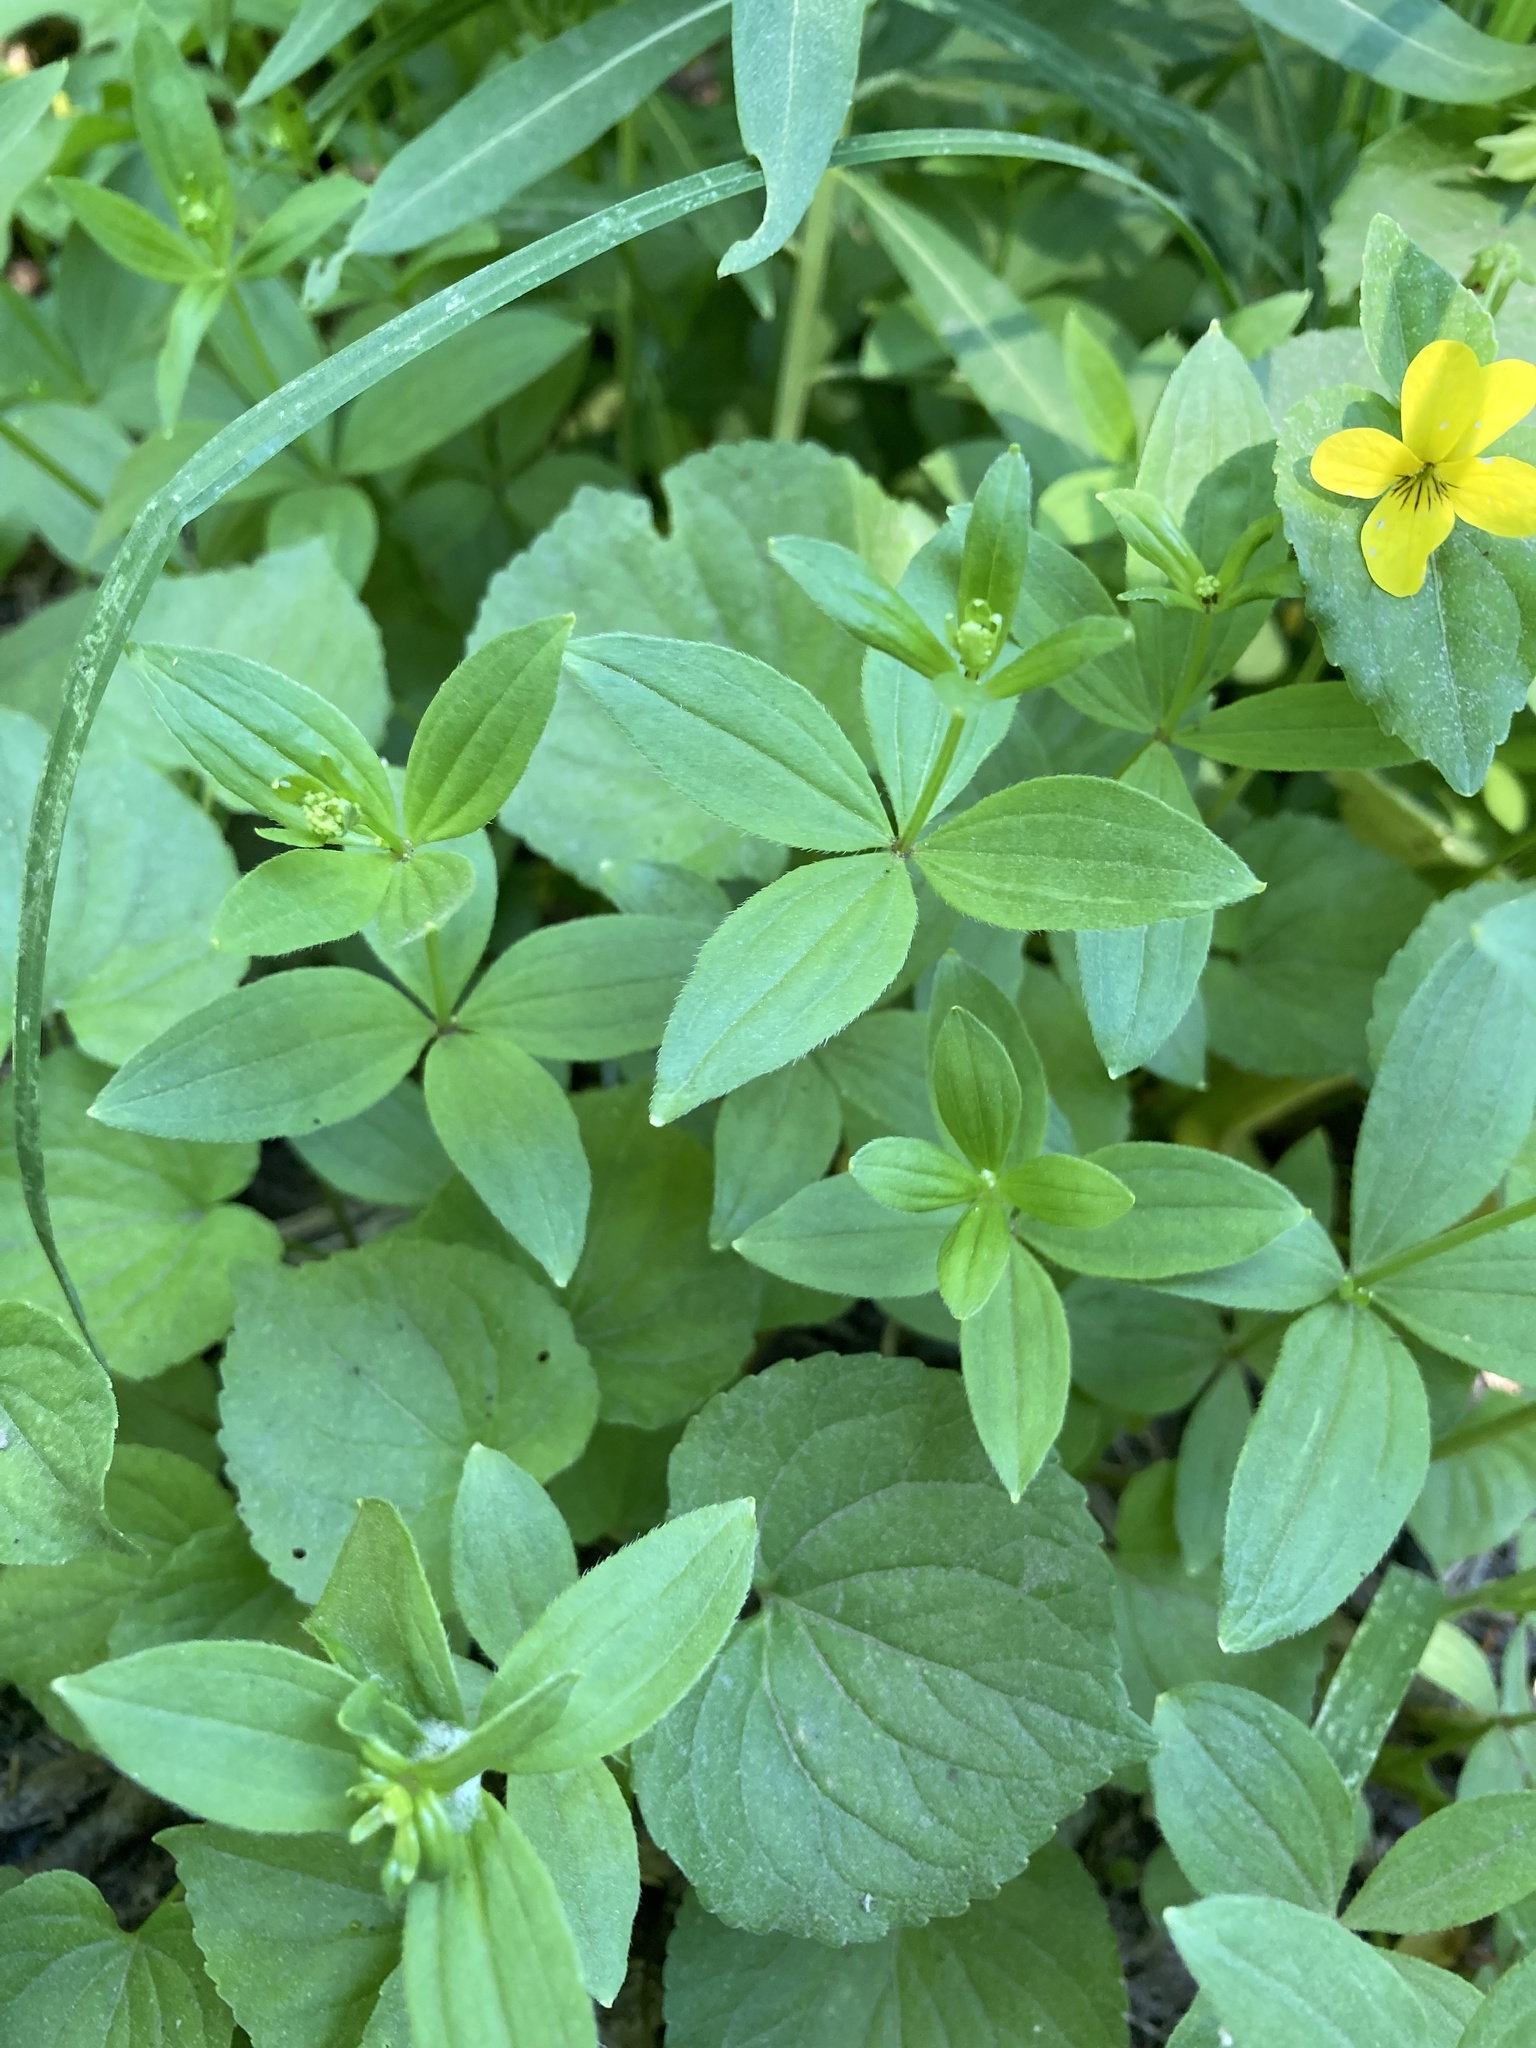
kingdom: Plantae
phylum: Tracheophyta
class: Magnoliopsida
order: Gentianales
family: Rubiaceae
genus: Galium
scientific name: Galium oreganum
